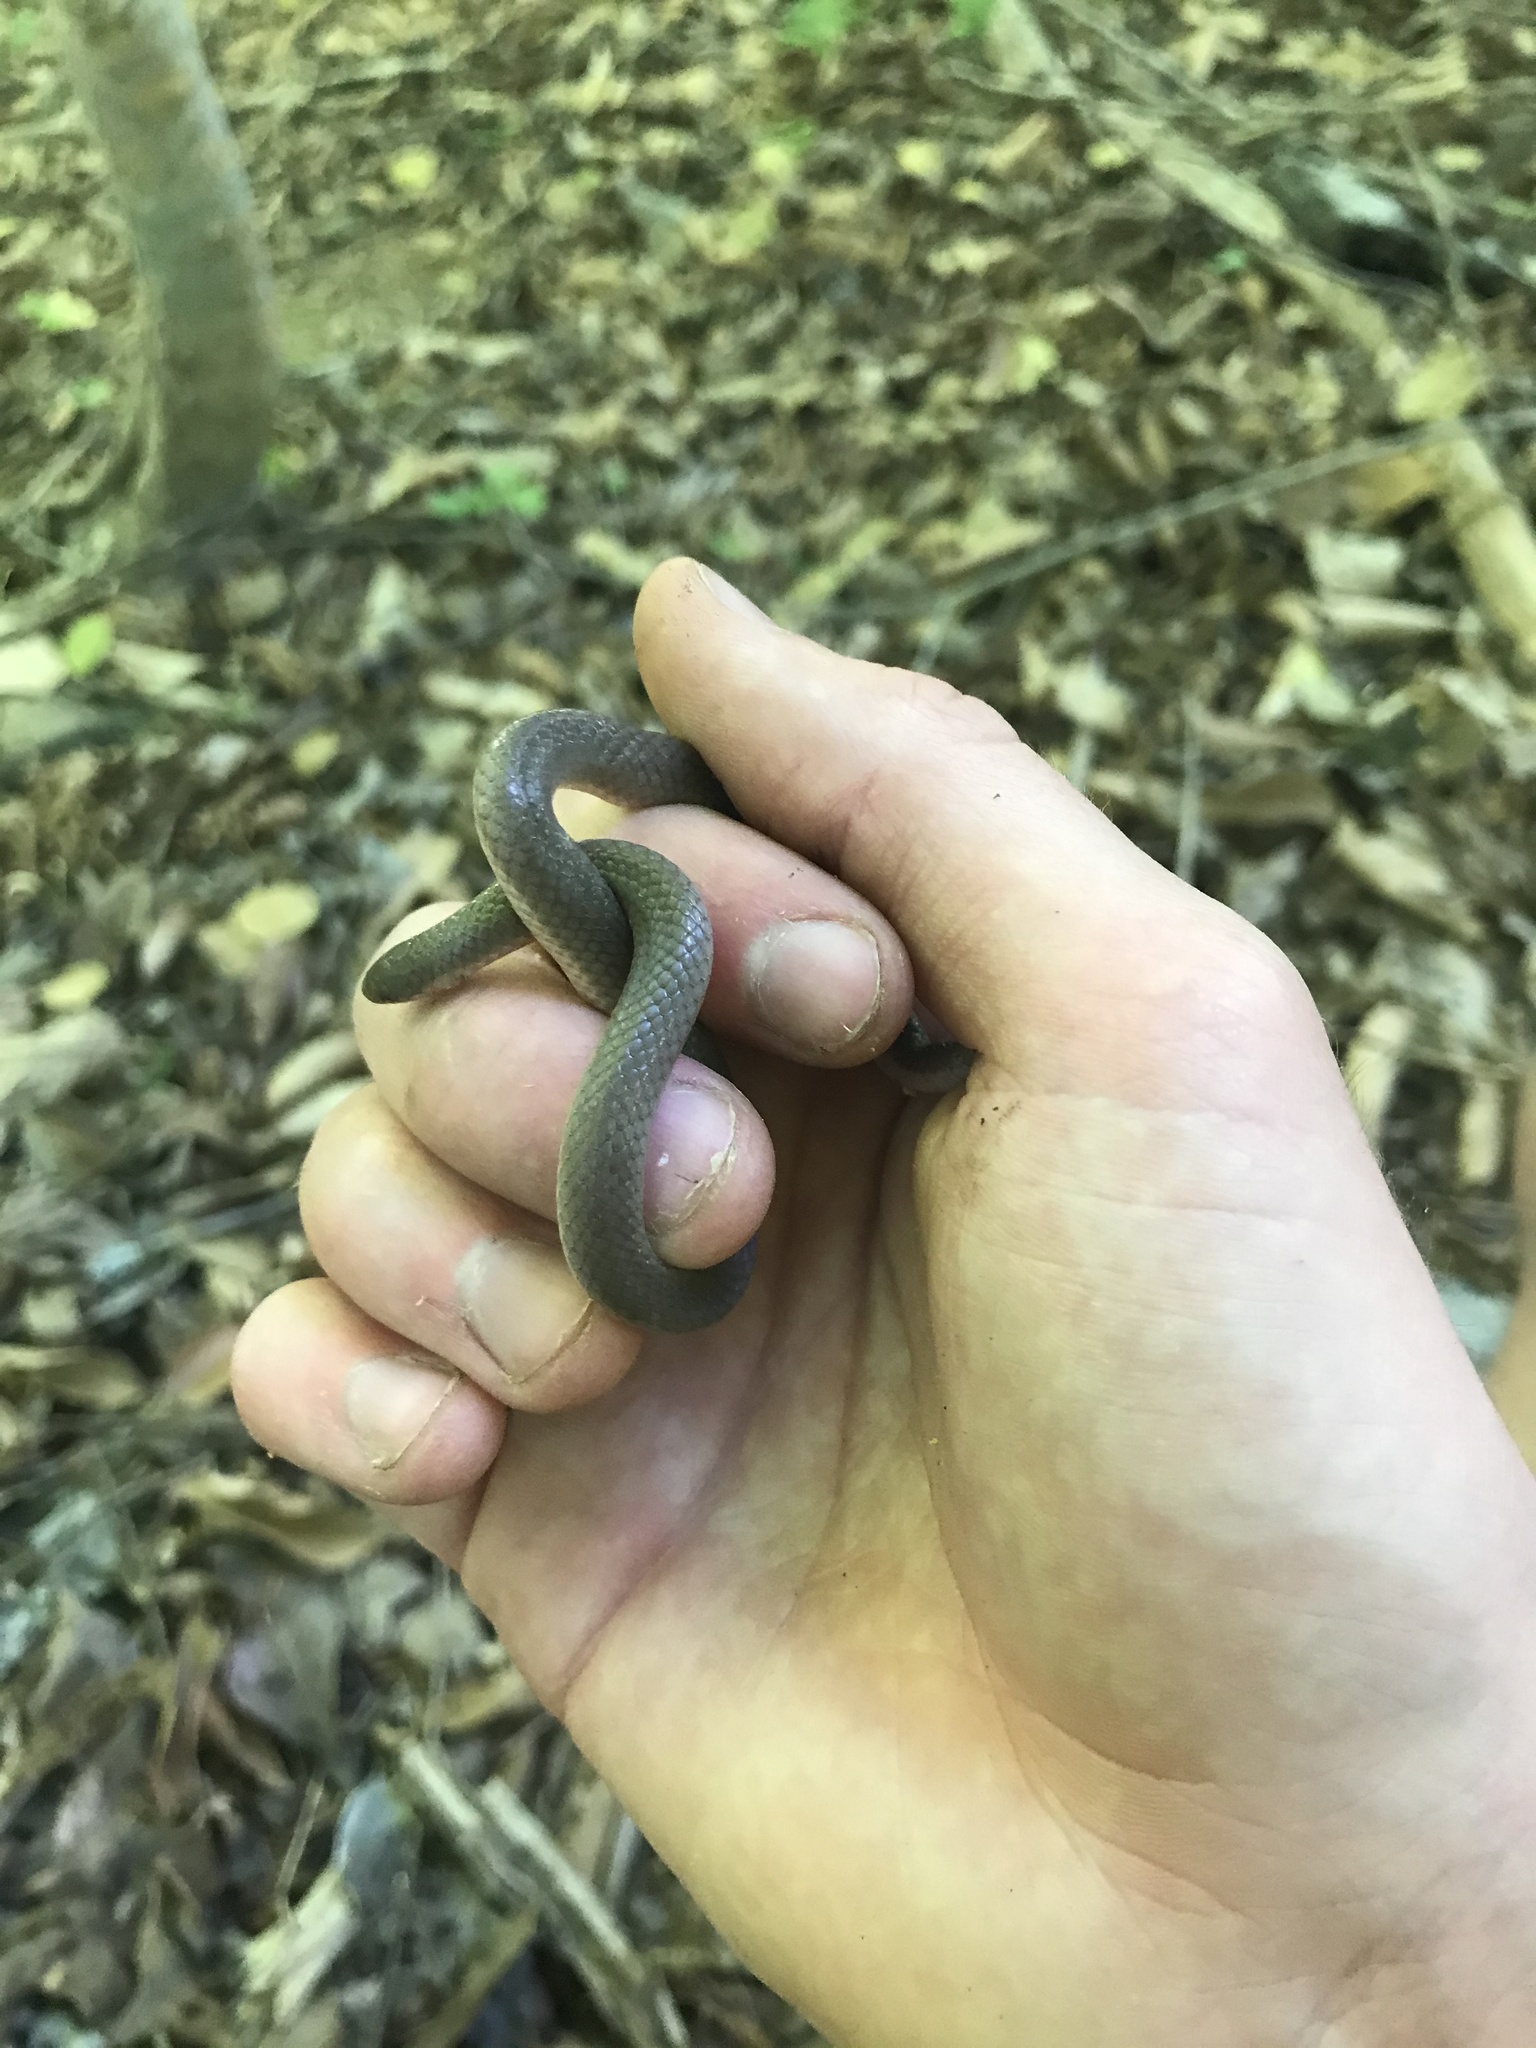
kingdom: Animalia
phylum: Chordata
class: Squamata
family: Colubridae
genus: Carphophis
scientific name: Carphophis amoenus
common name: Eastern worm snake
